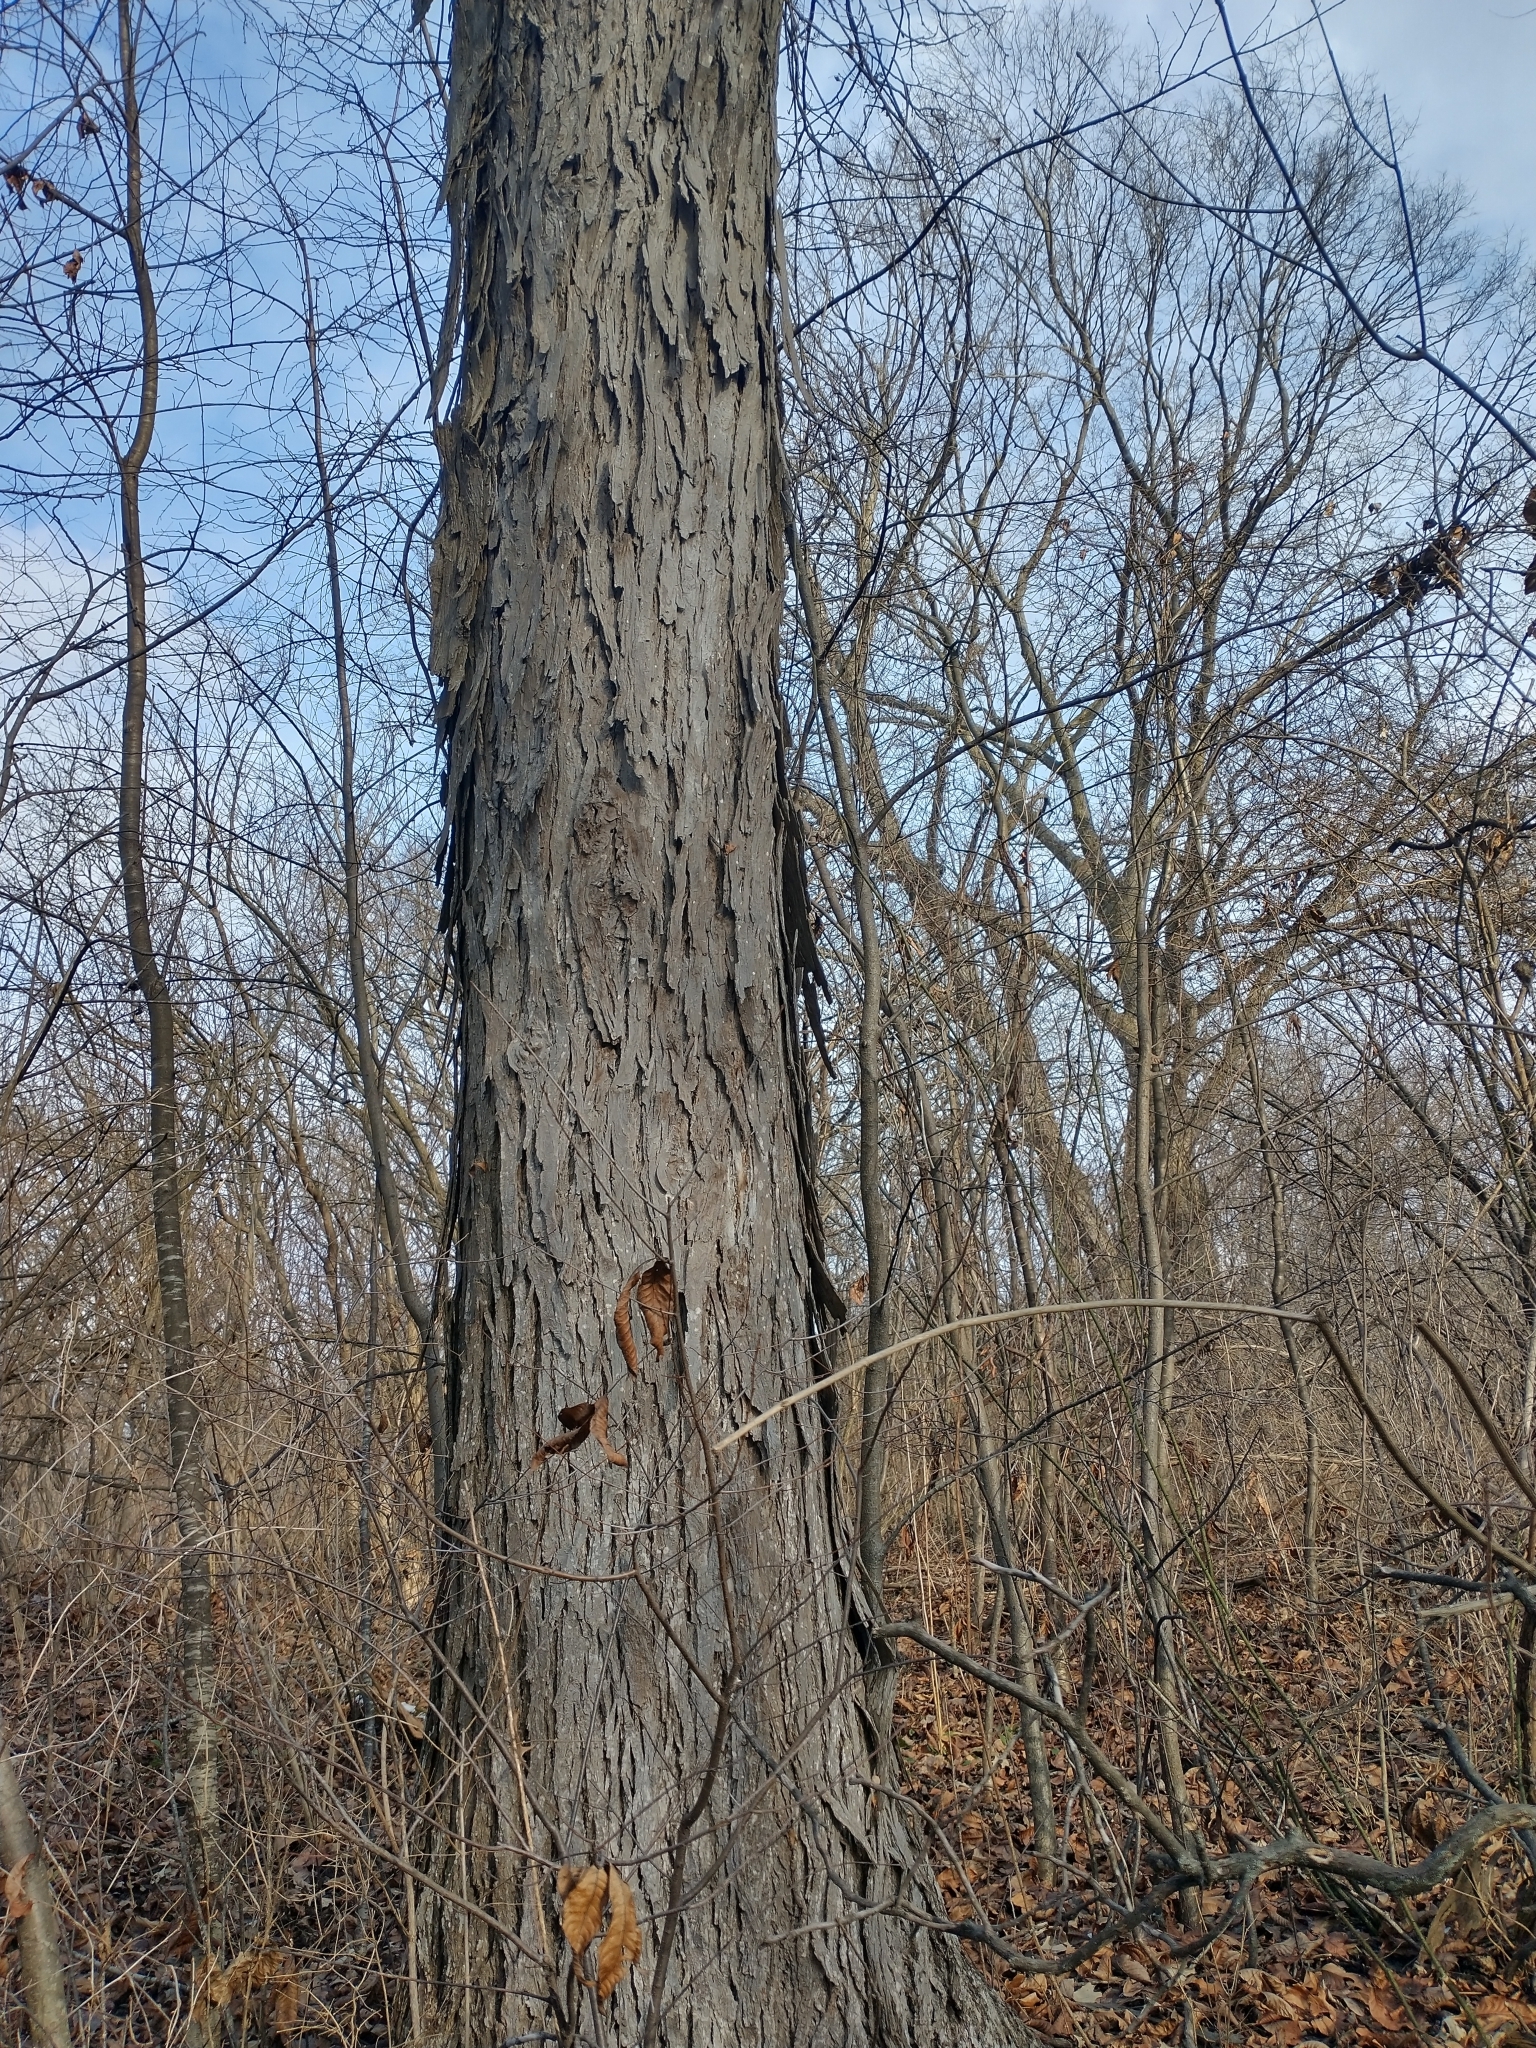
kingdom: Plantae
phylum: Tracheophyta
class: Magnoliopsida
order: Fagales
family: Juglandaceae
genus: Carya
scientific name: Carya ovata
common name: Shagbark hickory
